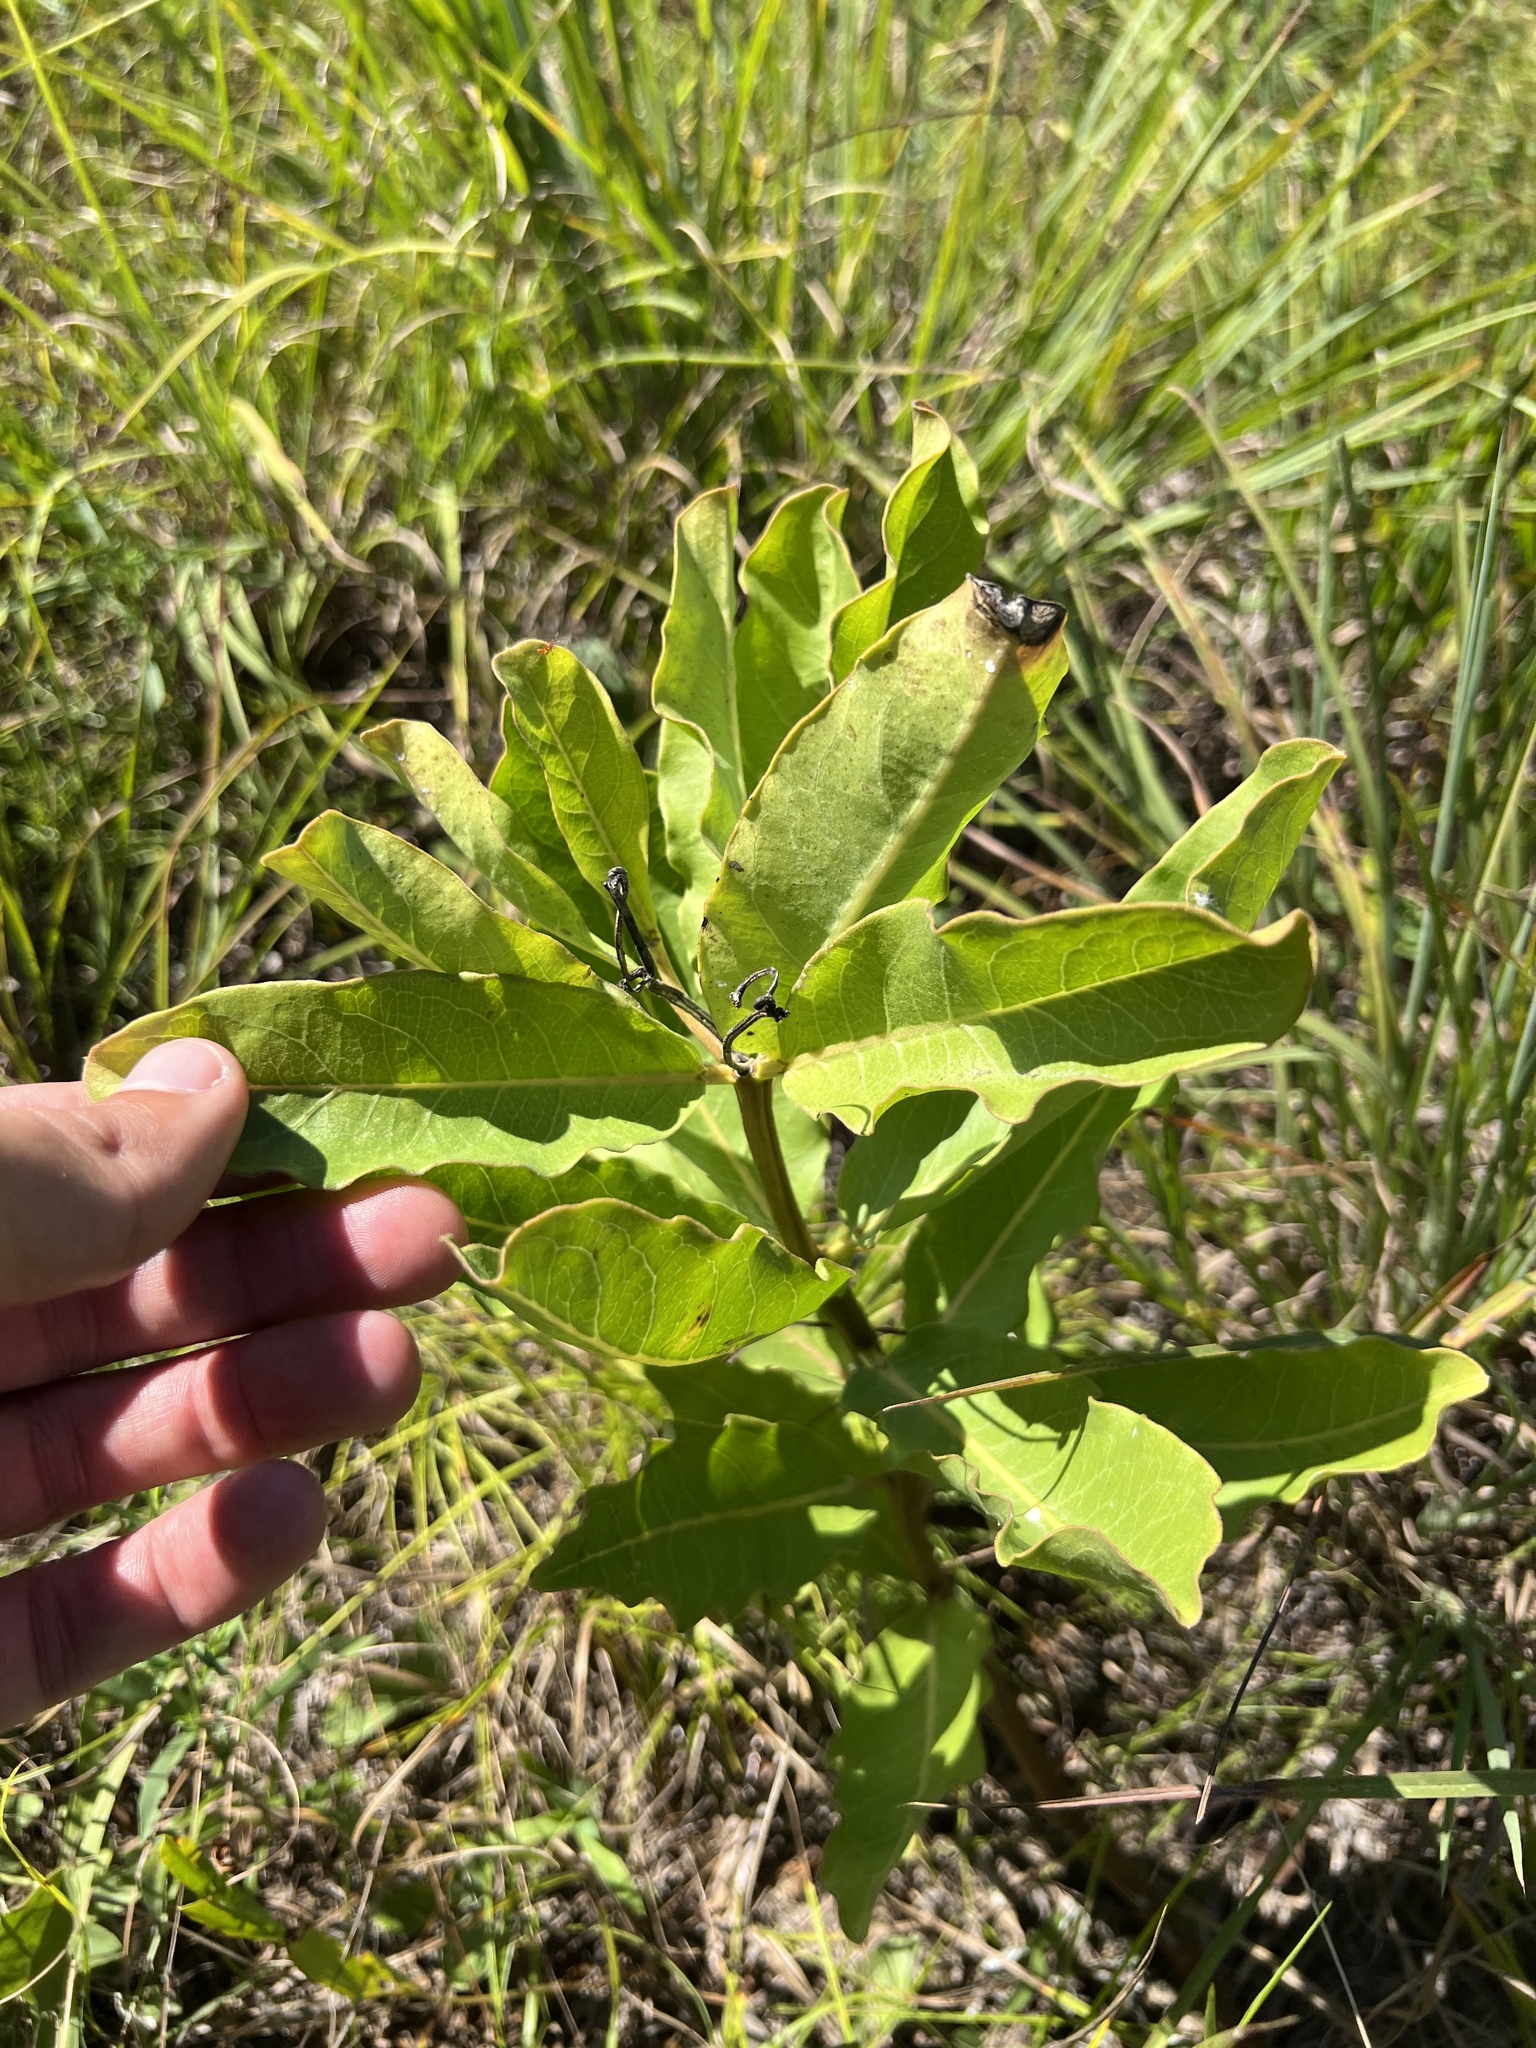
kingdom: Plantae
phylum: Tracheophyta
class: Magnoliopsida
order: Gentianales
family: Apocynaceae
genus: Asclepias
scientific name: Asclepias viridis
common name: Antelope-horns
